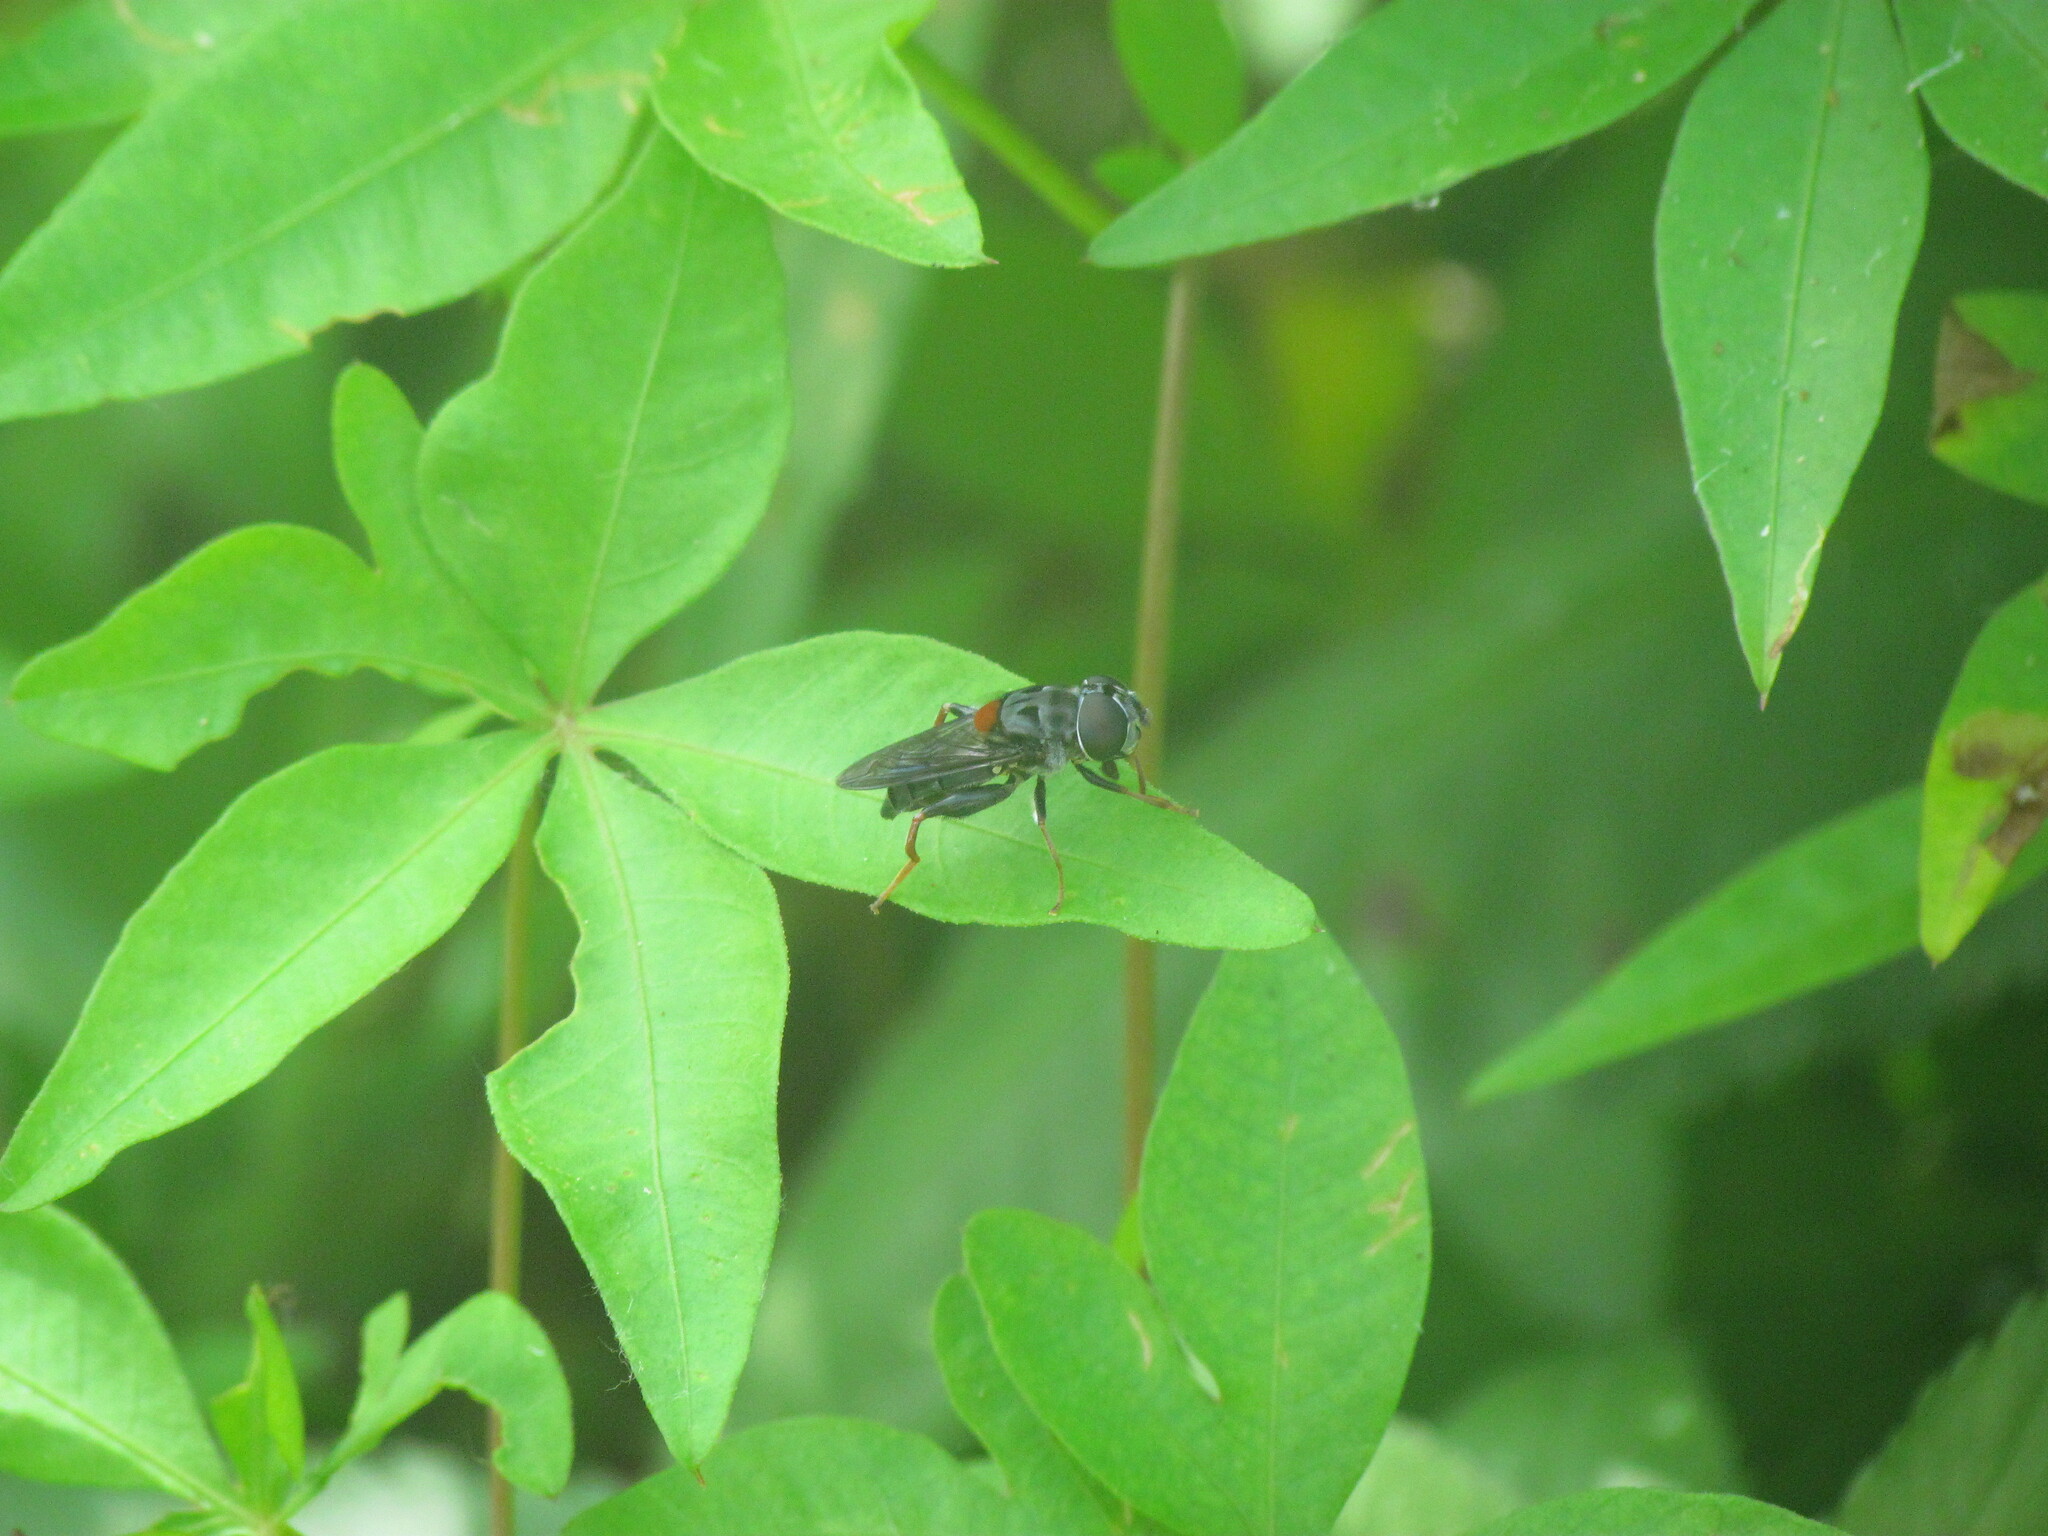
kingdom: Animalia
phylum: Arthropoda
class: Insecta
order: Diptera
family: Syrphidae
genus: Palpada
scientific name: Palpada rufoscutellata
